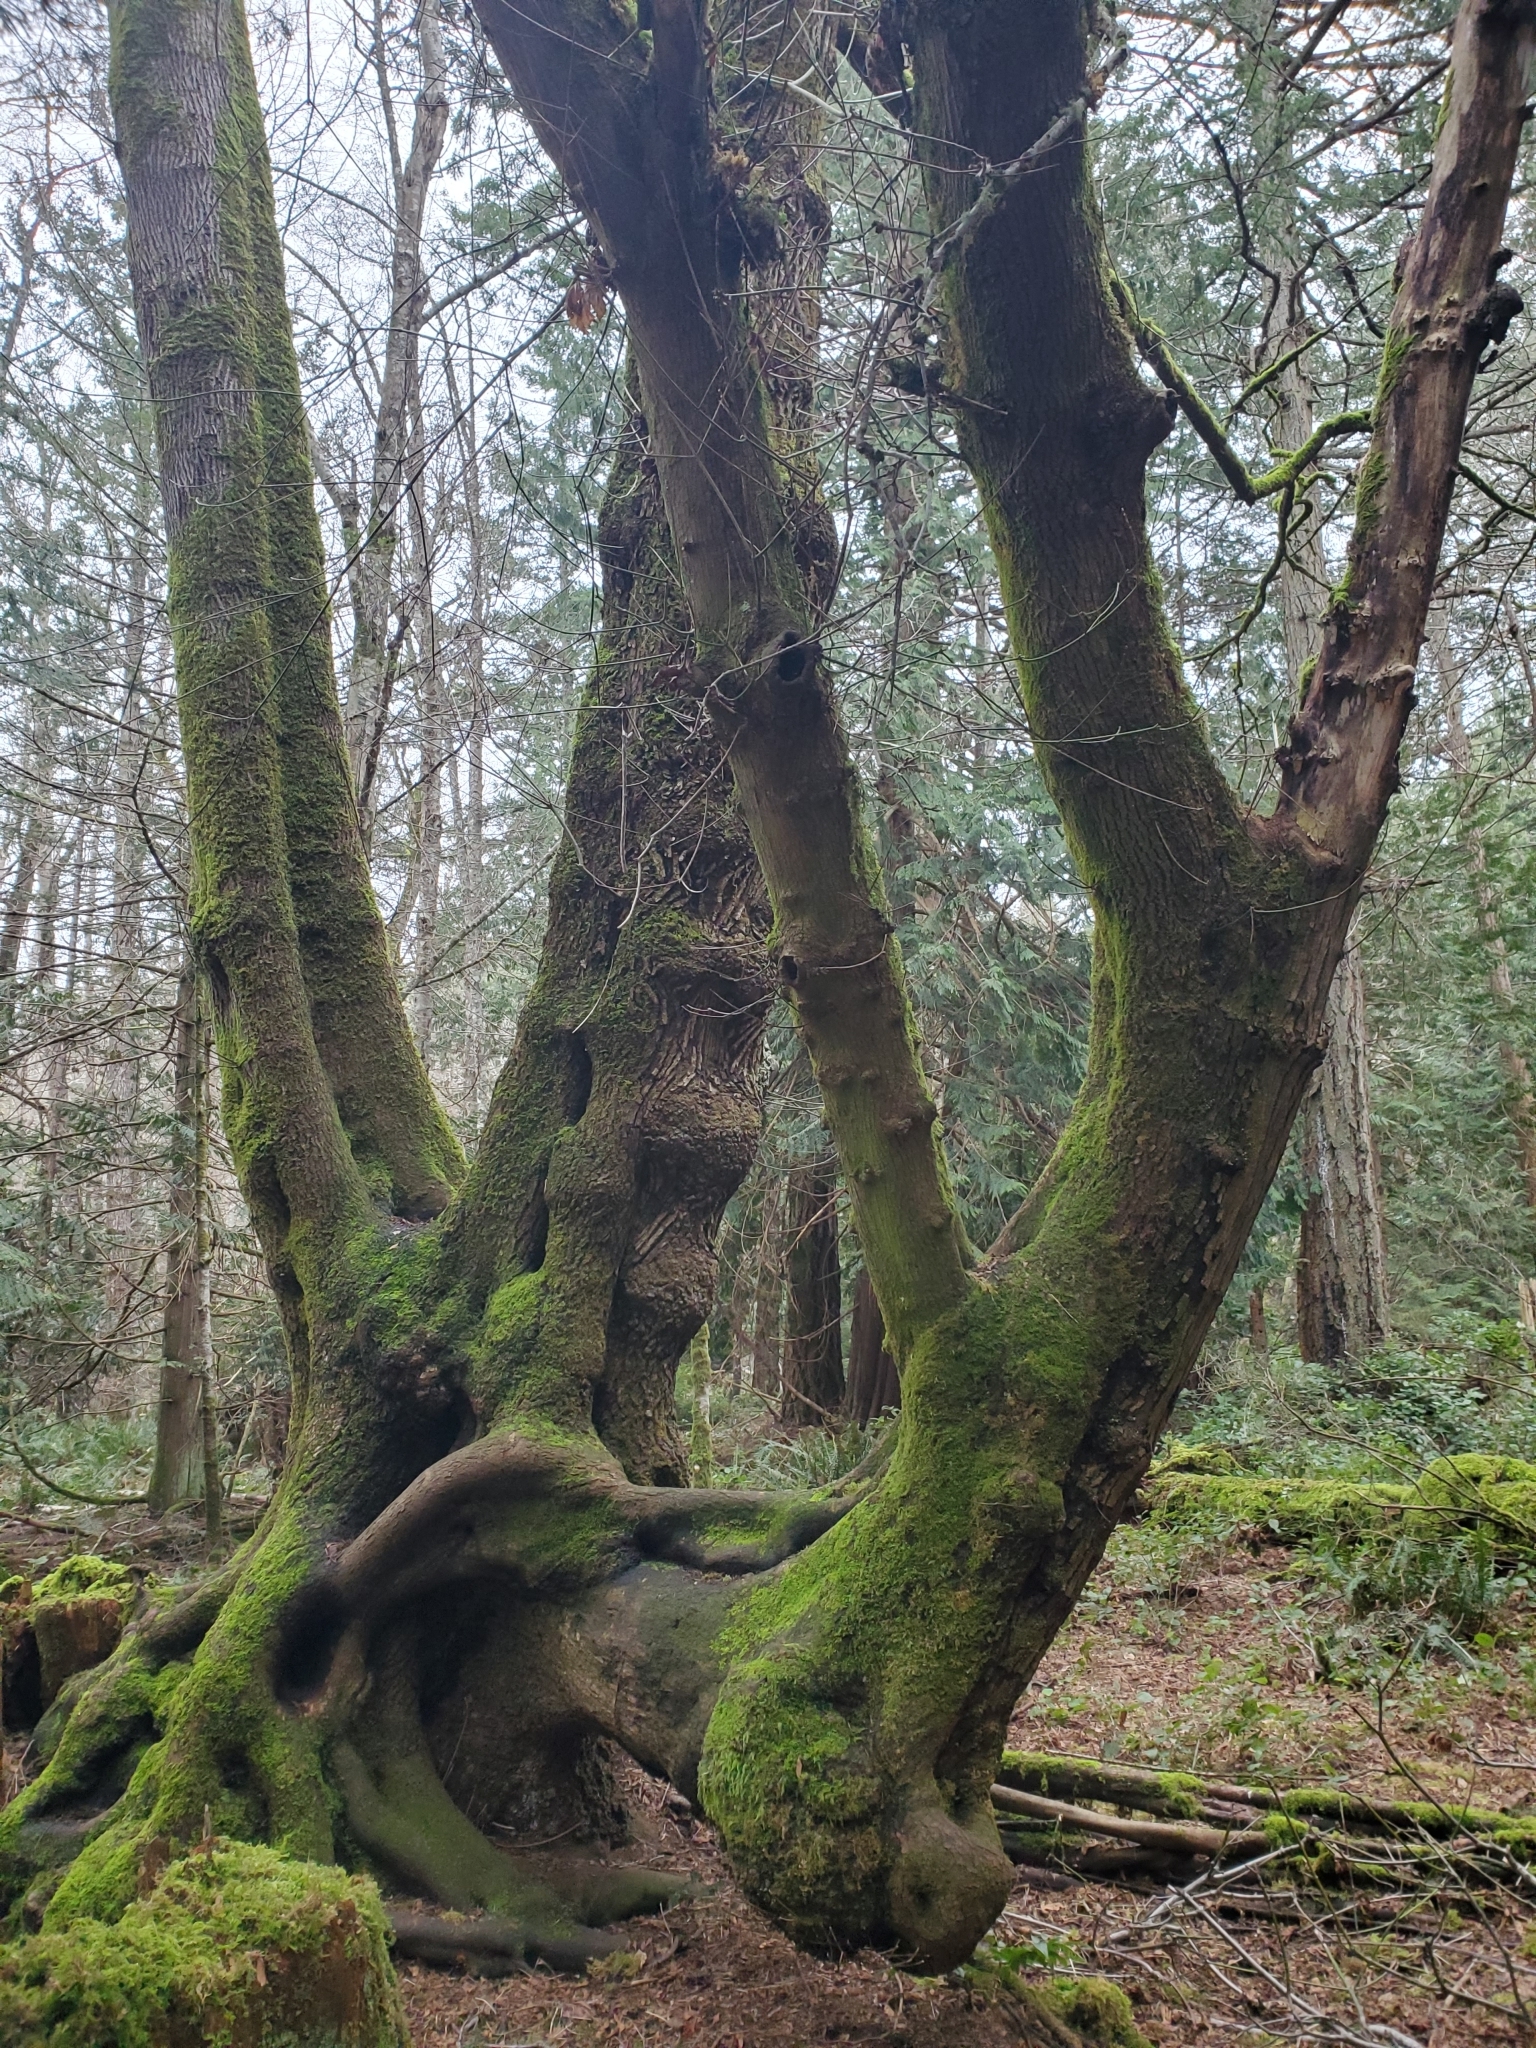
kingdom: Plantae
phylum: Tracheophyta
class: Magnoliopsida
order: Sapindales
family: Sapindaceae
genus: Acer
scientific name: Acer macrophyllum
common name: Oregon maple
